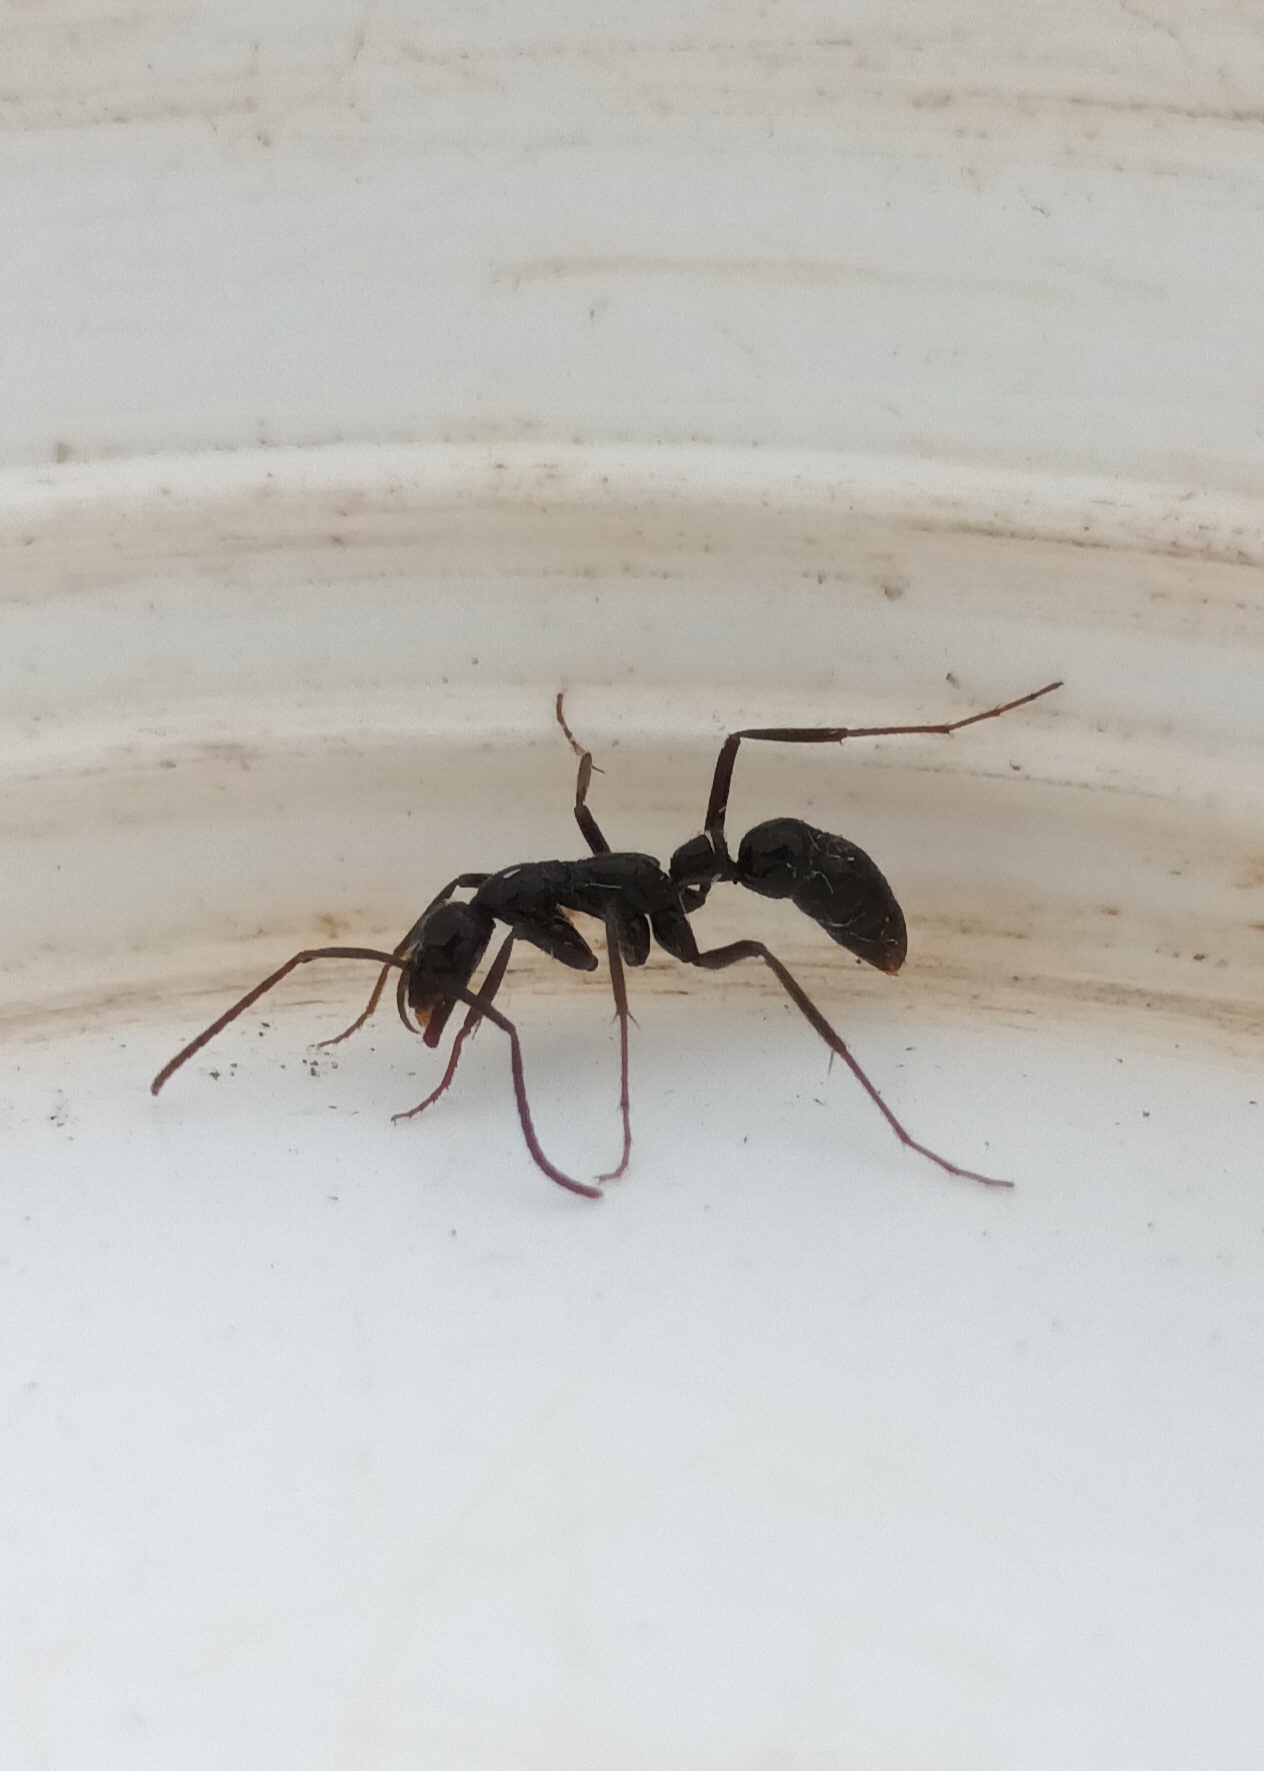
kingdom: Animalia
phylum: Arthropoda
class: Insecta
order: Hymenoptera
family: Formicidae
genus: Leptogenys
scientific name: Leptogenys chinensis
